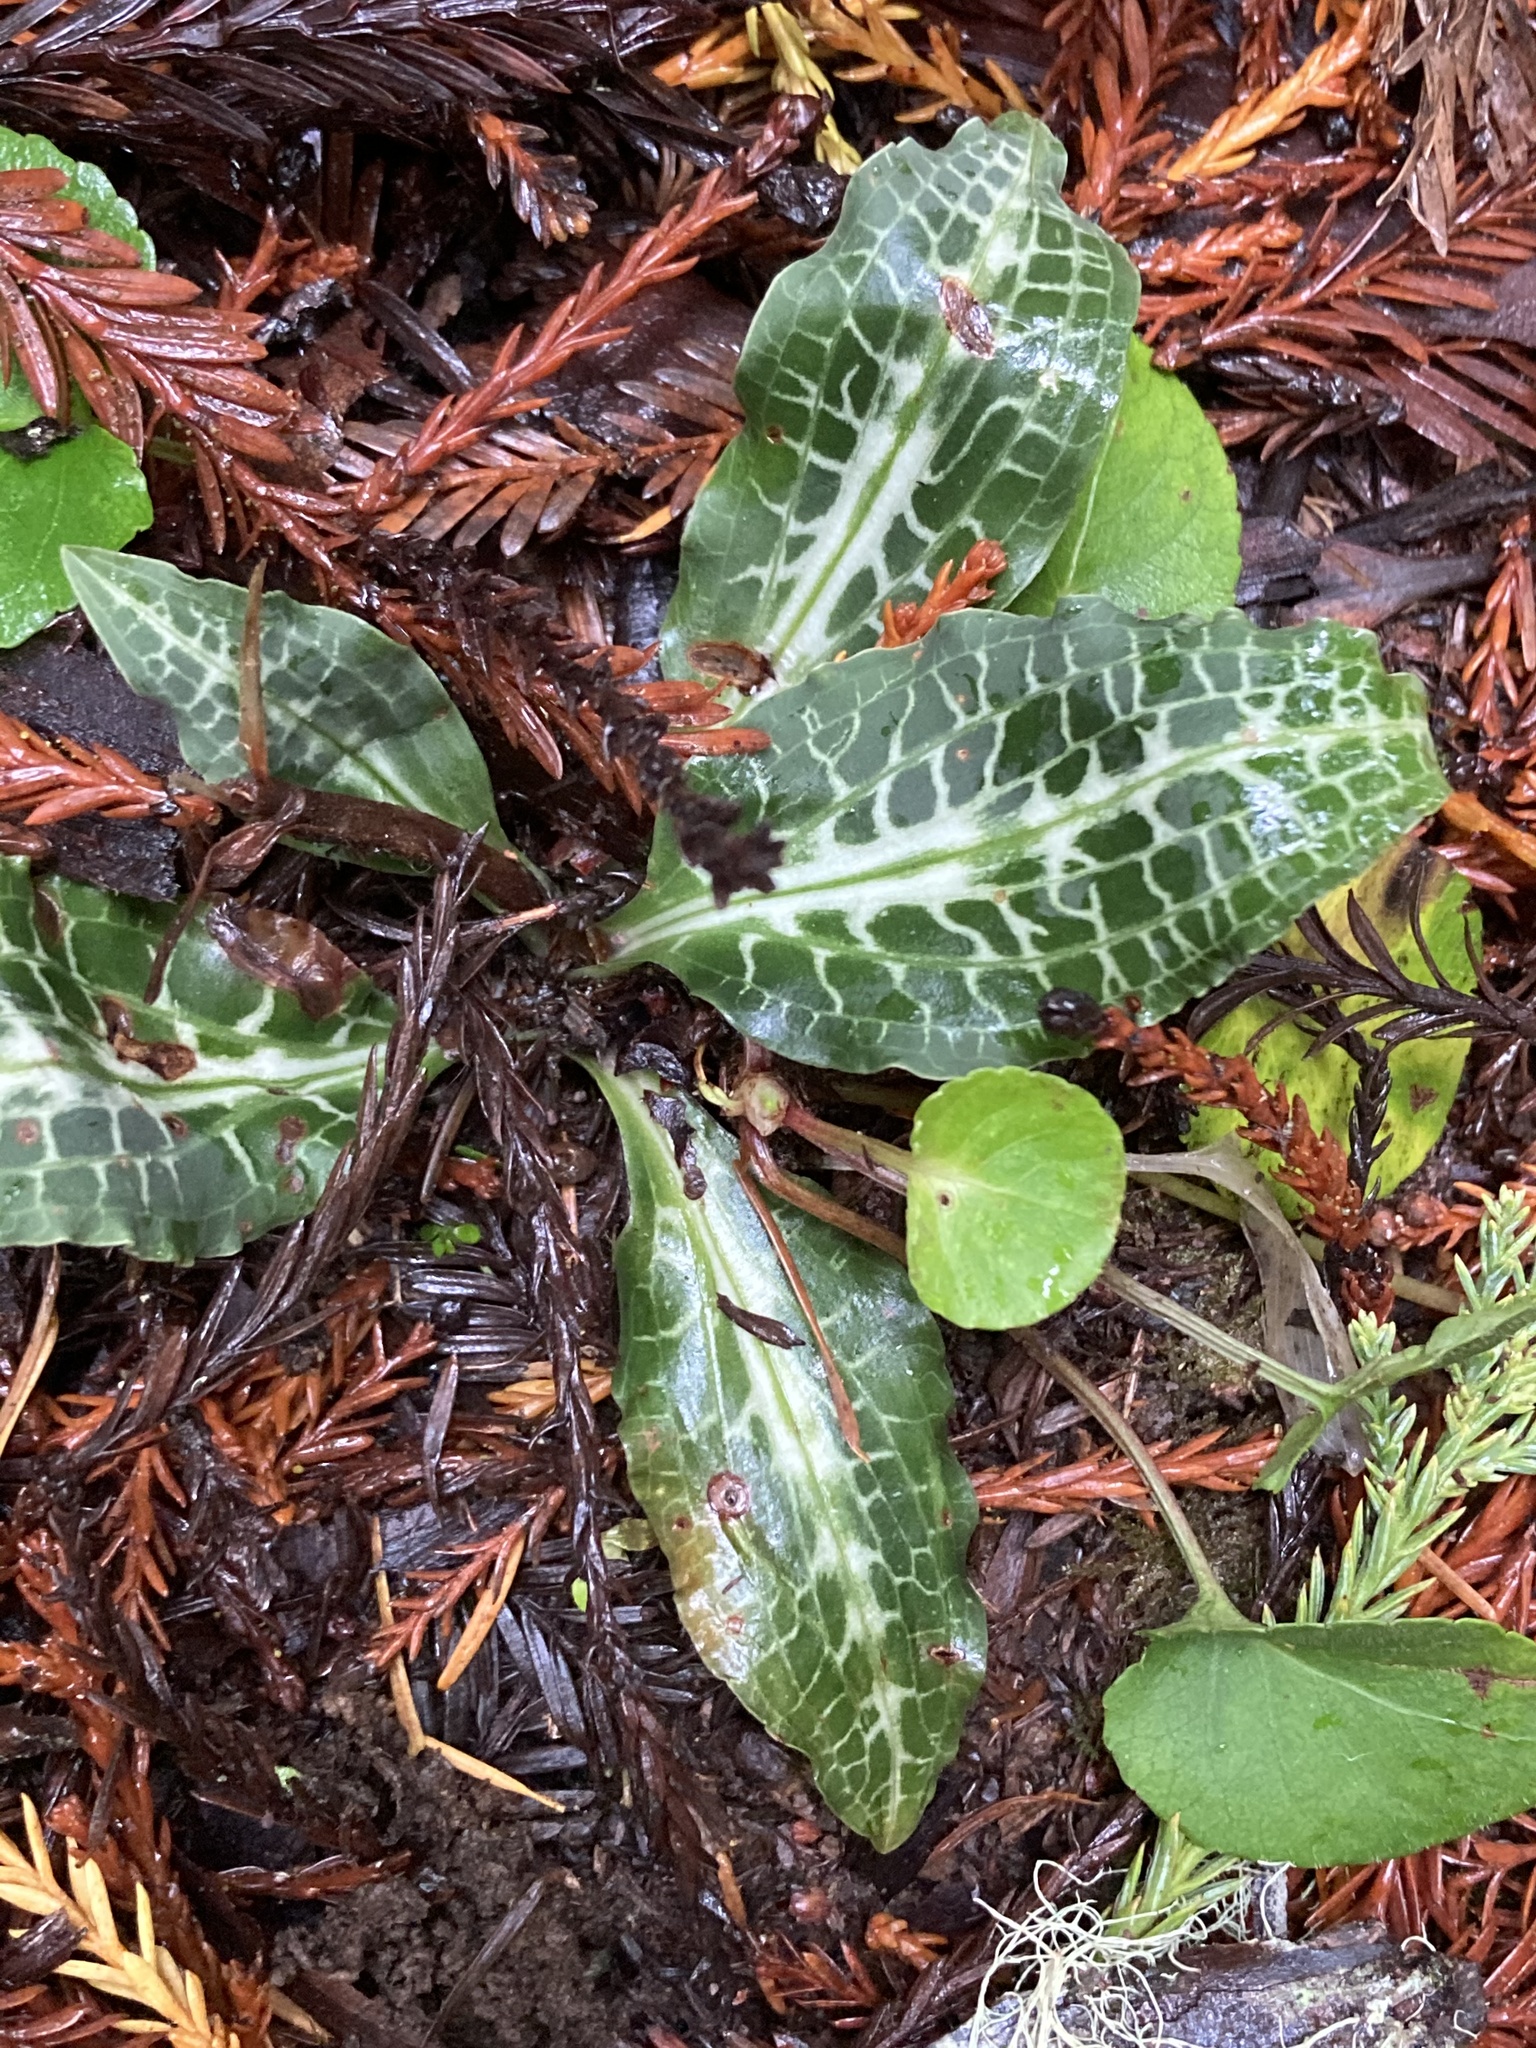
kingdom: Plantae
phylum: Tracheophyta
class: Liliopsida
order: Asparagales
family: Orchidaceae
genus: Goodyera
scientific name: Goodyera oblongifolia
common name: Giant rattlesnake-plantain
